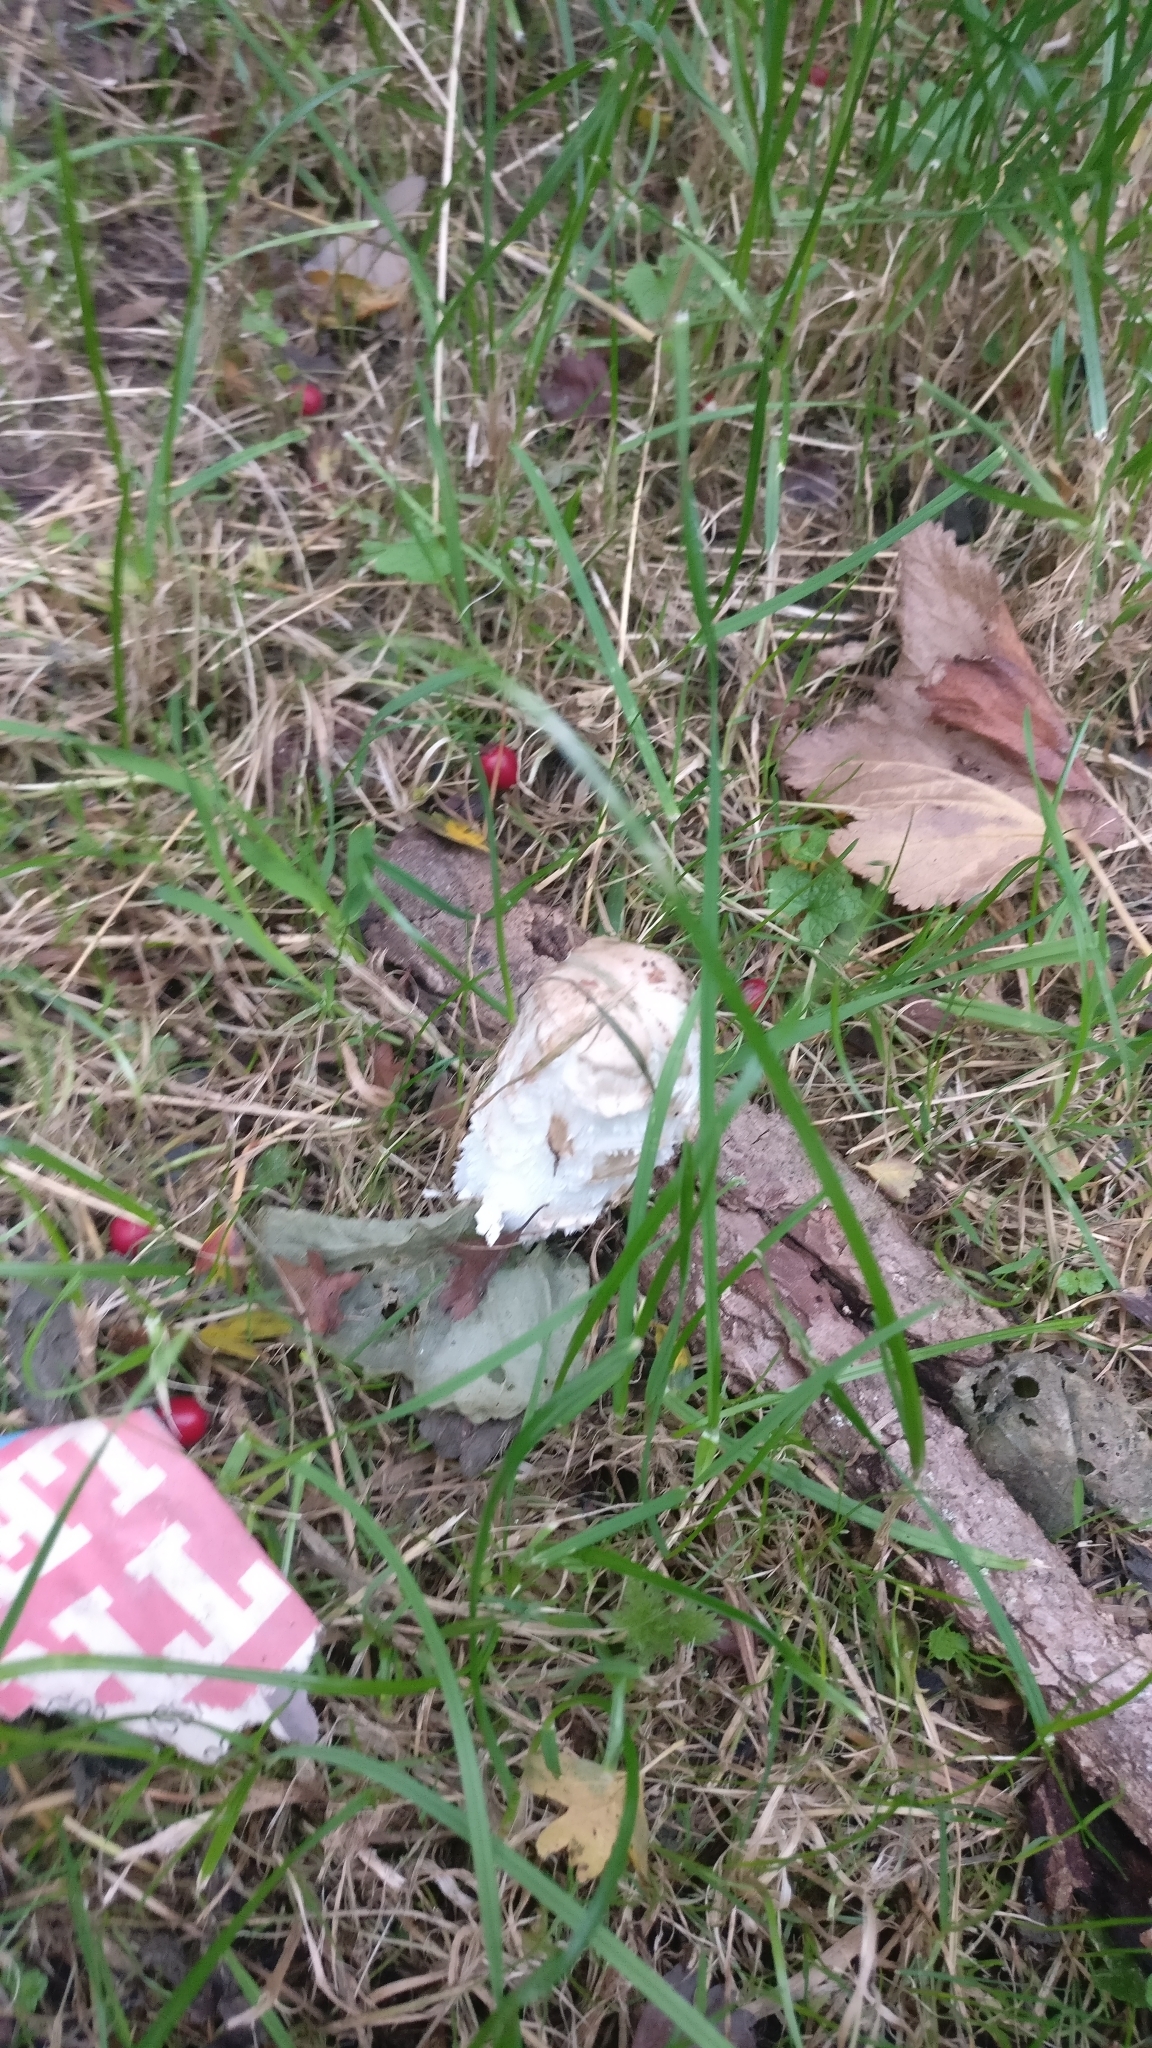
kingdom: Fungi
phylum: Basidiomycota
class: Agaricomycetes
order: Agaricales
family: Agaricaceae
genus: Coprinus
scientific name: Coprinus comatus
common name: Lawyer's wig
